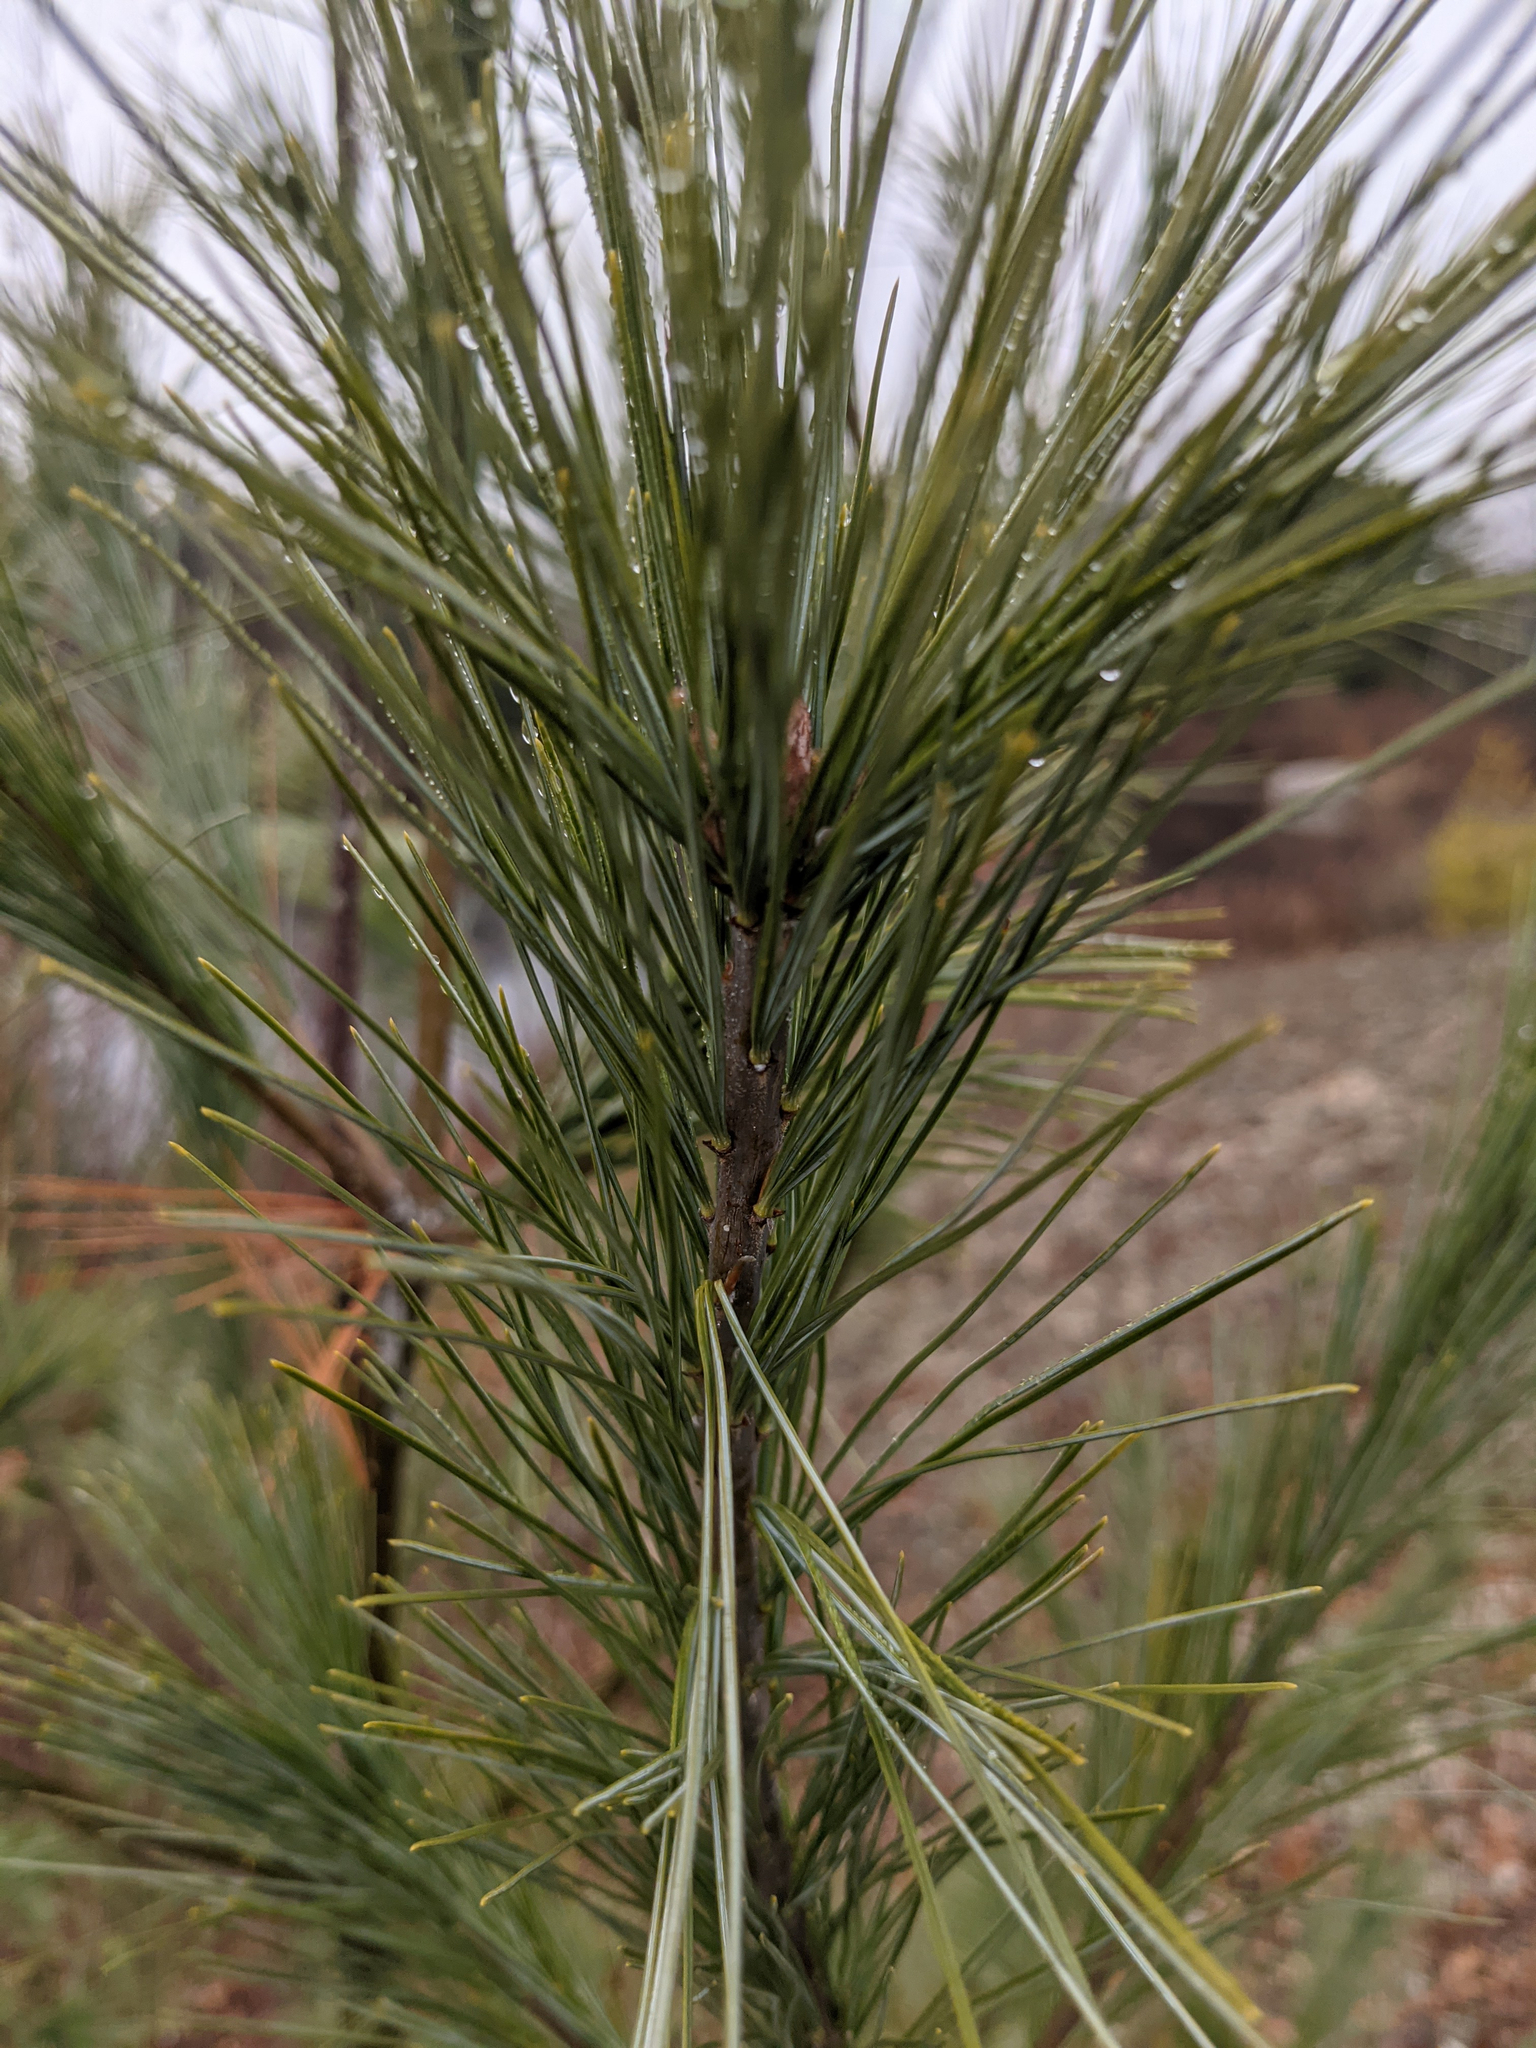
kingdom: Plantae
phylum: Tracheophyta
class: Pinopsida
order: Pinales
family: Pinaceae
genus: Pinus
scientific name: Pinus strobus
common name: Weymouth pine
